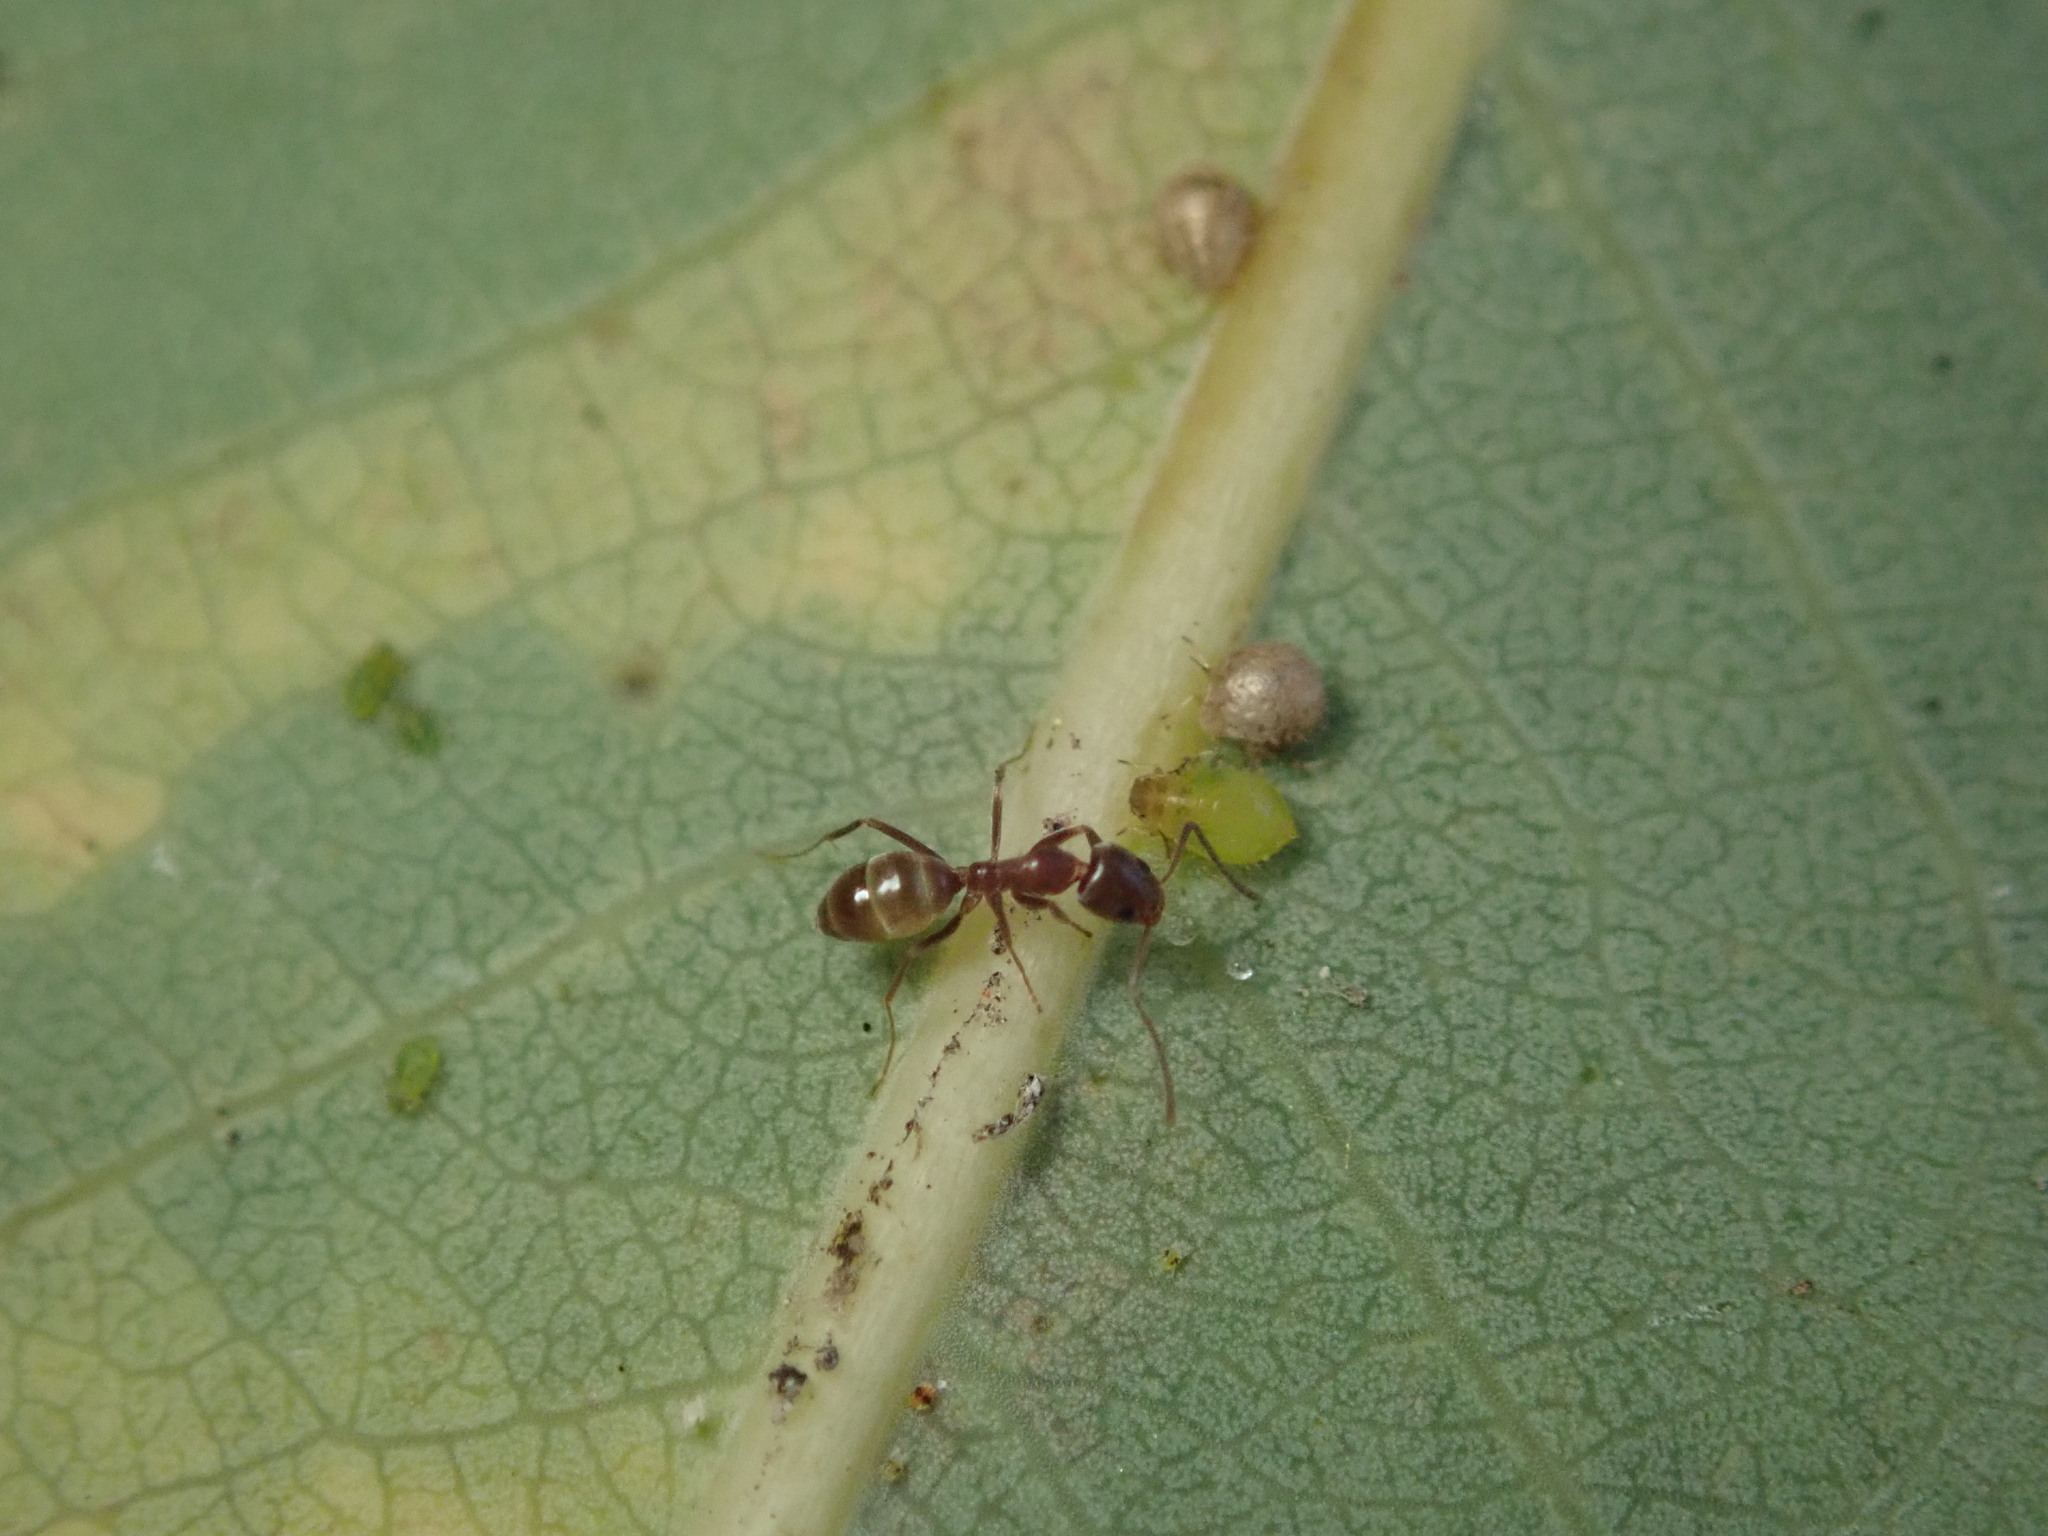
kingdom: Animalia
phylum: Arthropoda
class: Insecta
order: Hymenoptera
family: Formicidae
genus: Linepithema
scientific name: Linepithema humile
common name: Argentine ant
